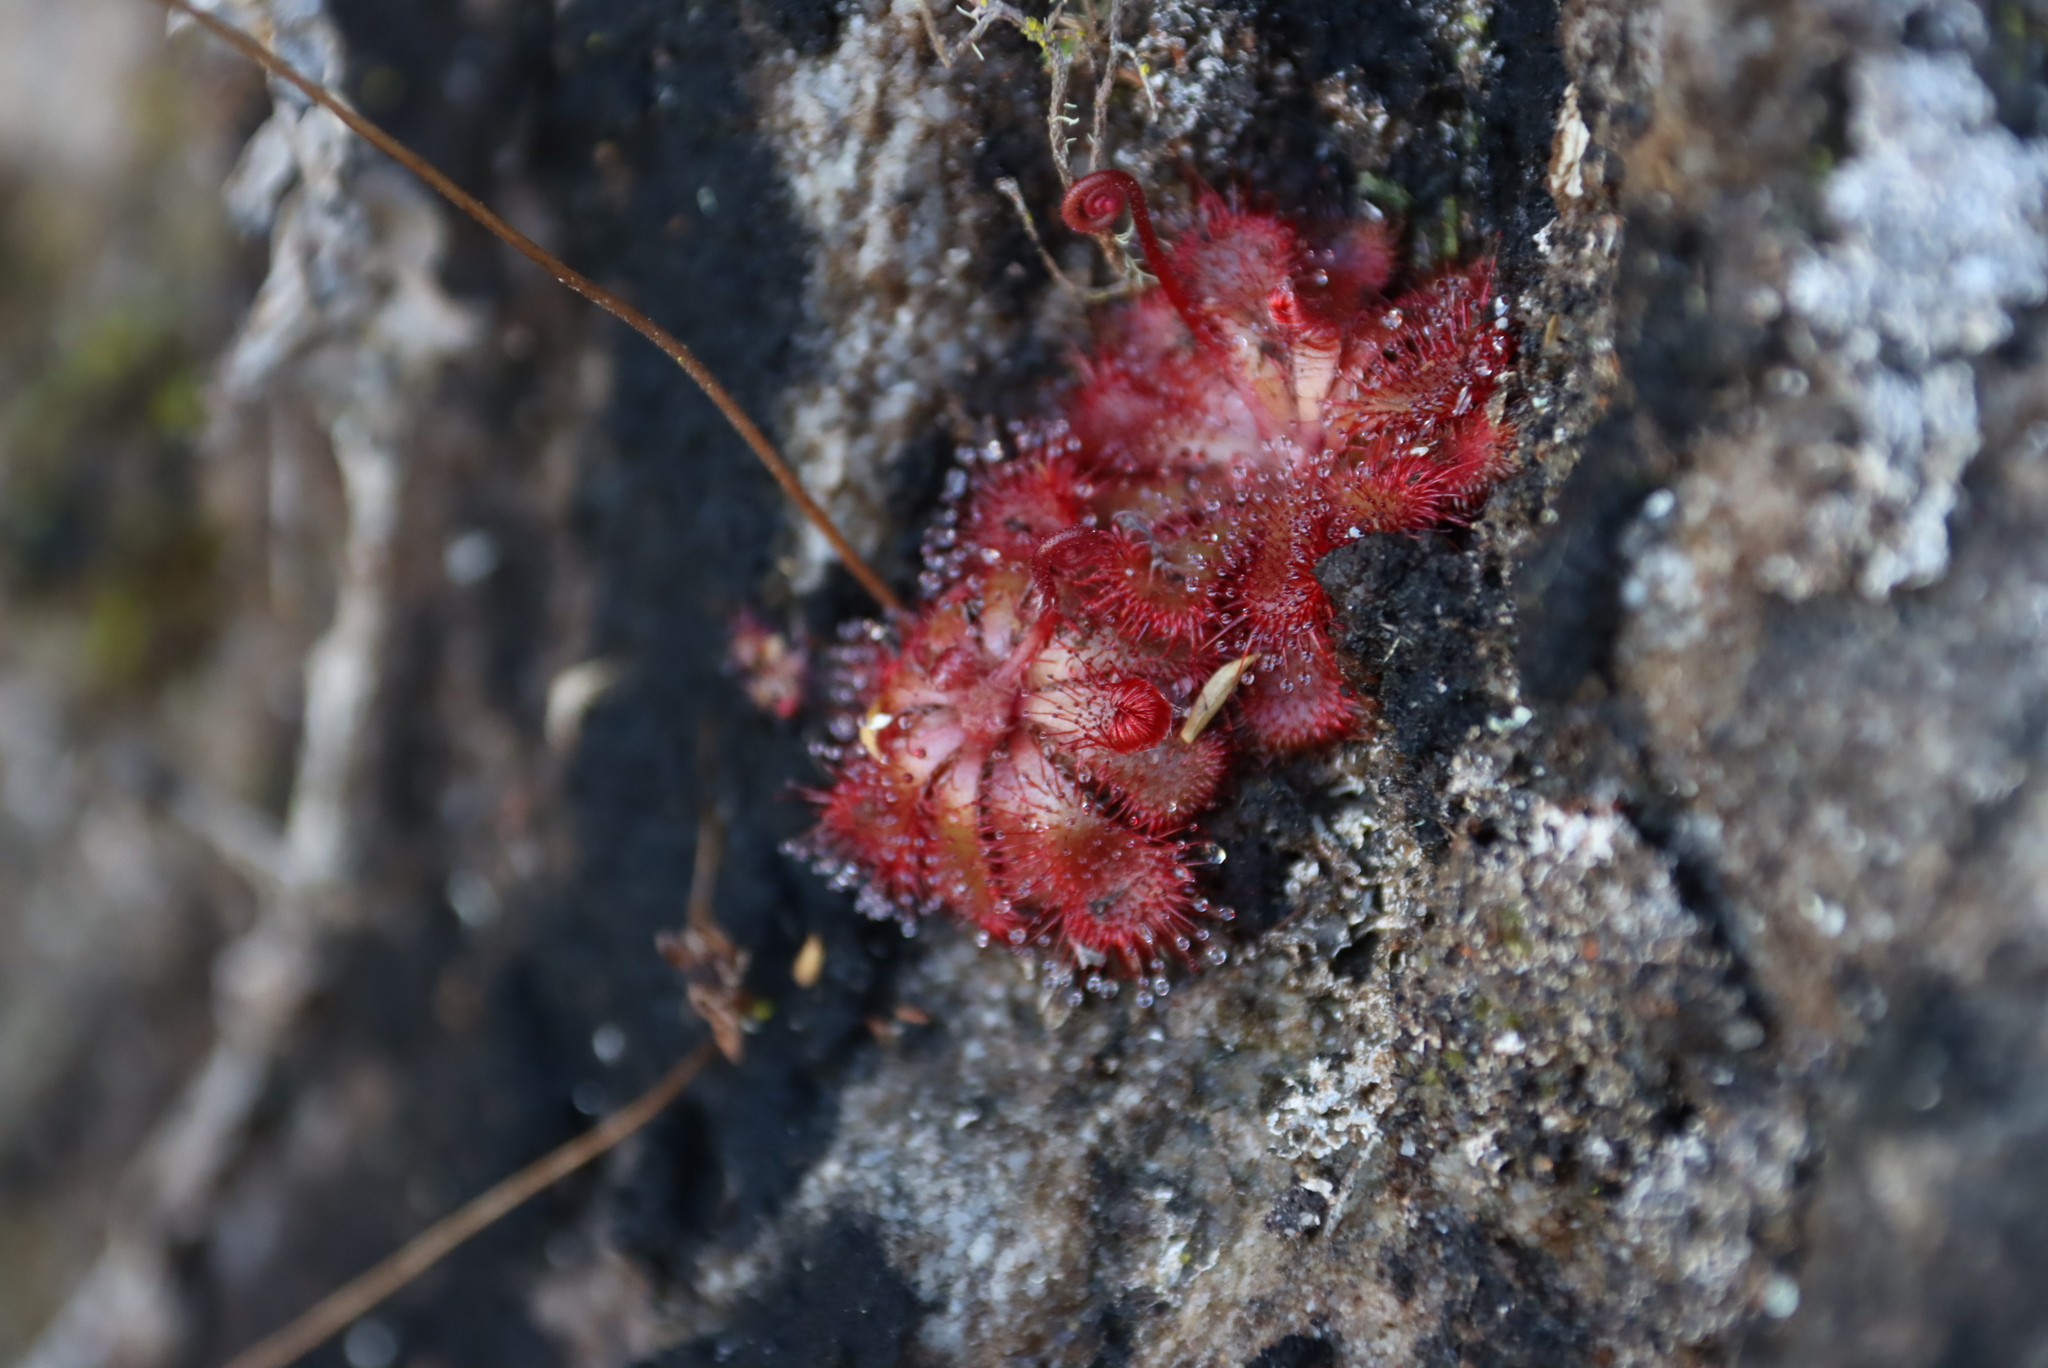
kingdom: Plantae
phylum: Tracheophyta
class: Magnoliopsida
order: Caryophyllales
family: Droseraceae
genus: Drosera
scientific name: Drosera aliciae
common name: Alice sundew
